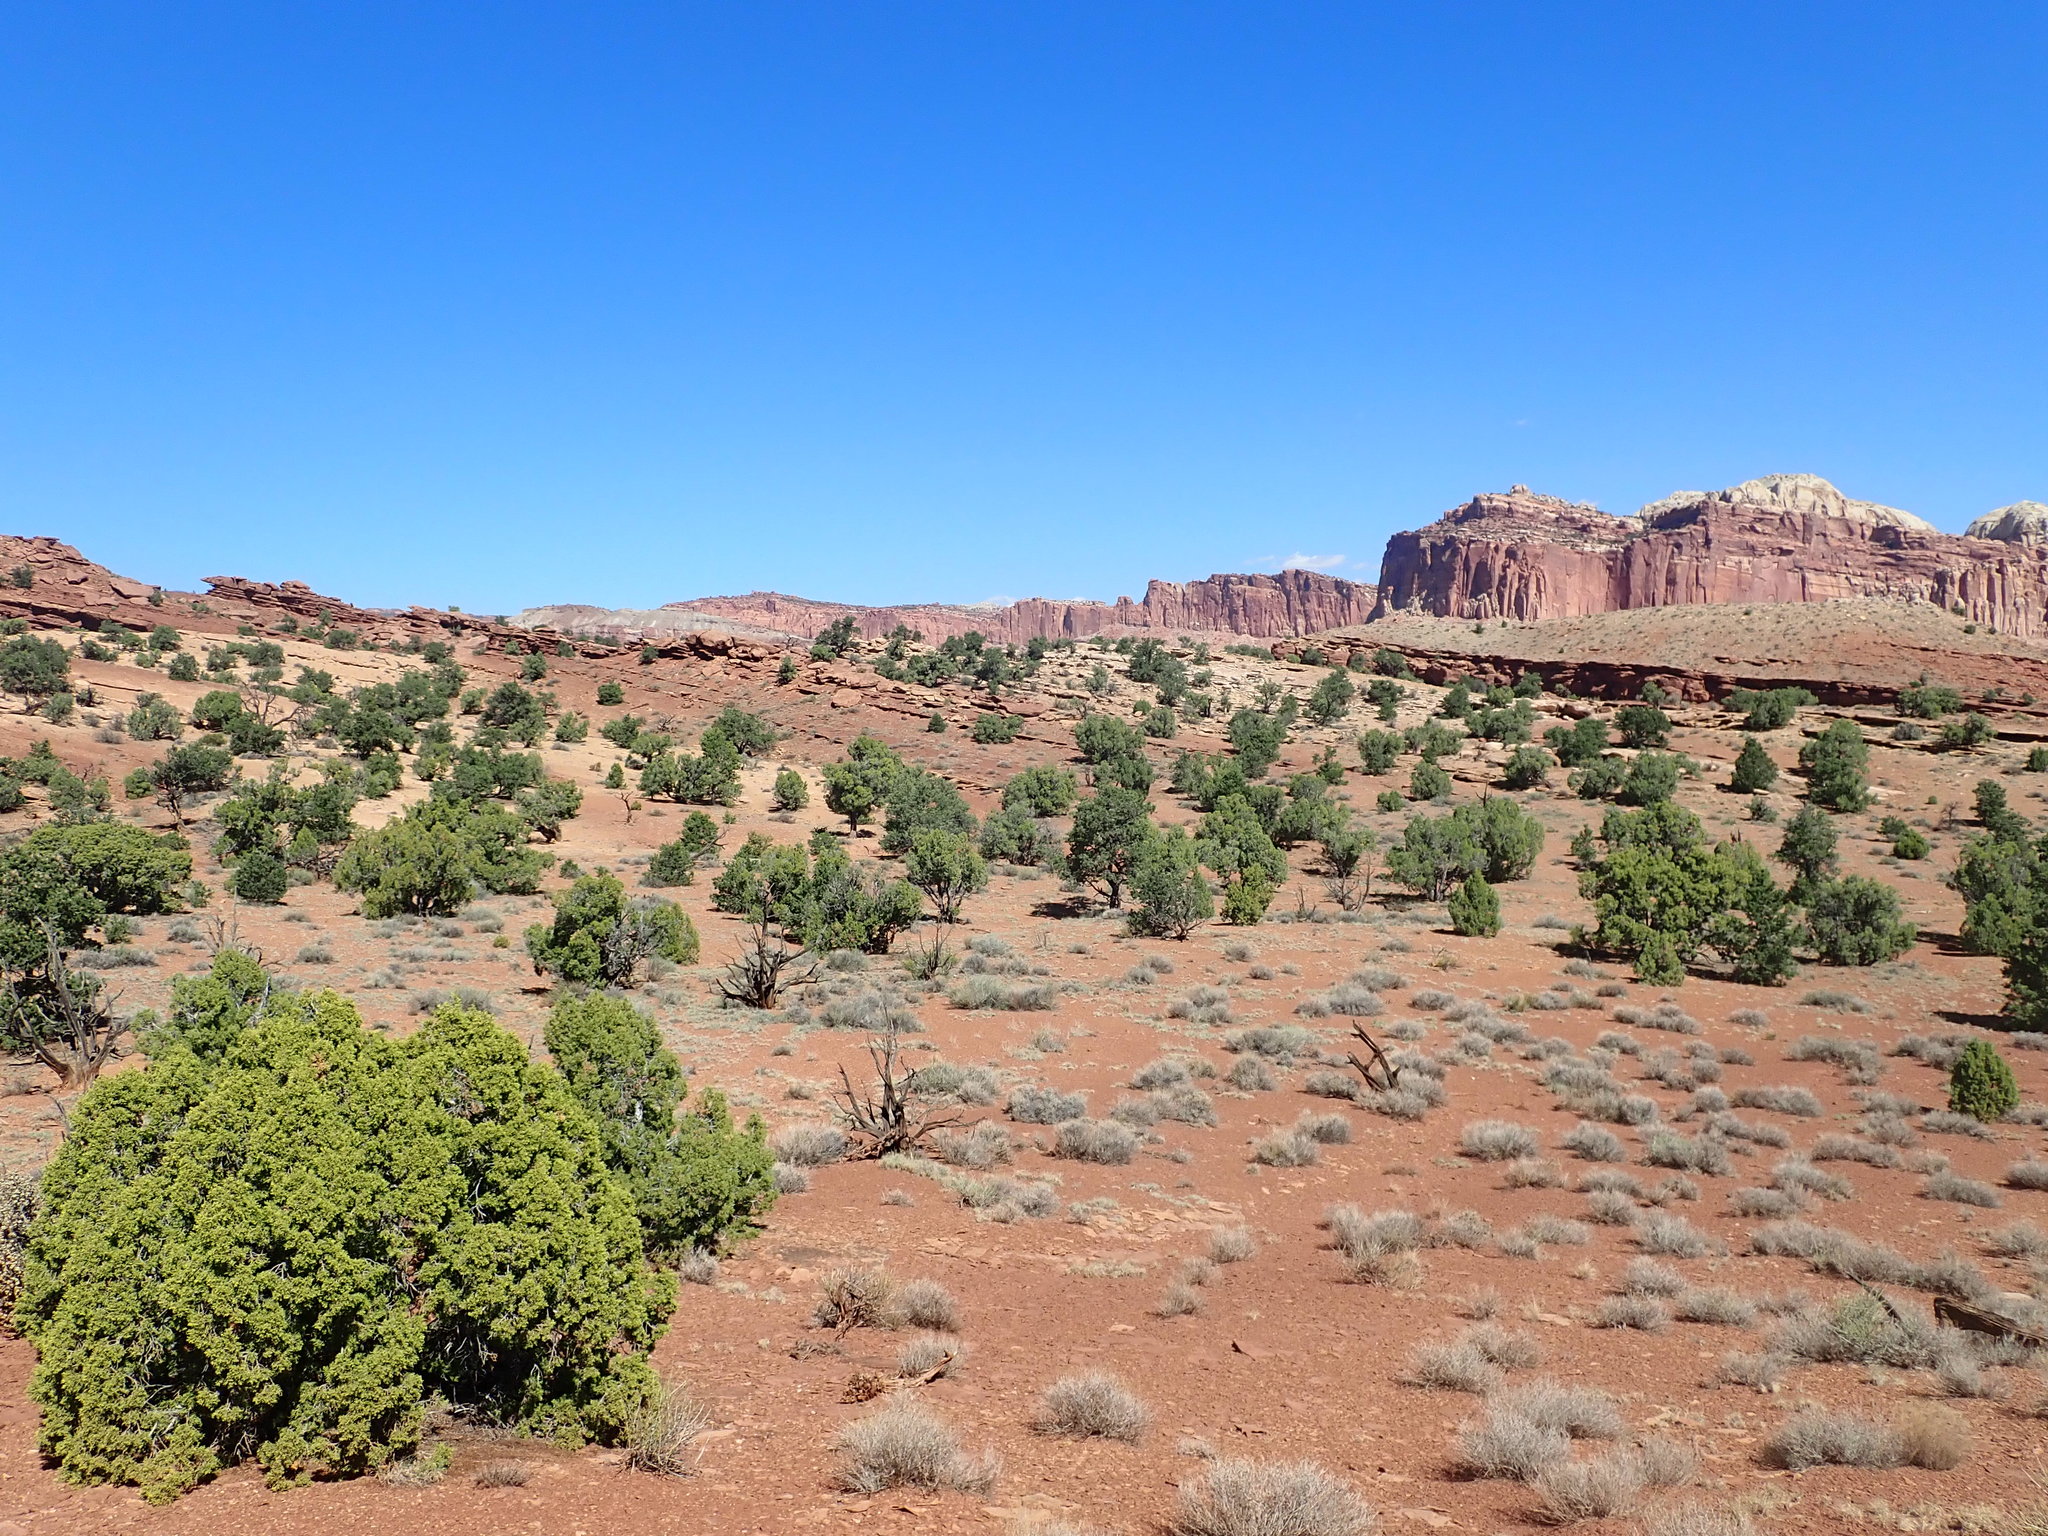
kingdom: Plantae
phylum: Tracheophyta
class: Pinopsida
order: Pinales
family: Cupressaceae
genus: Juniperus
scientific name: Juniperus osteosperma
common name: Utah juniper
